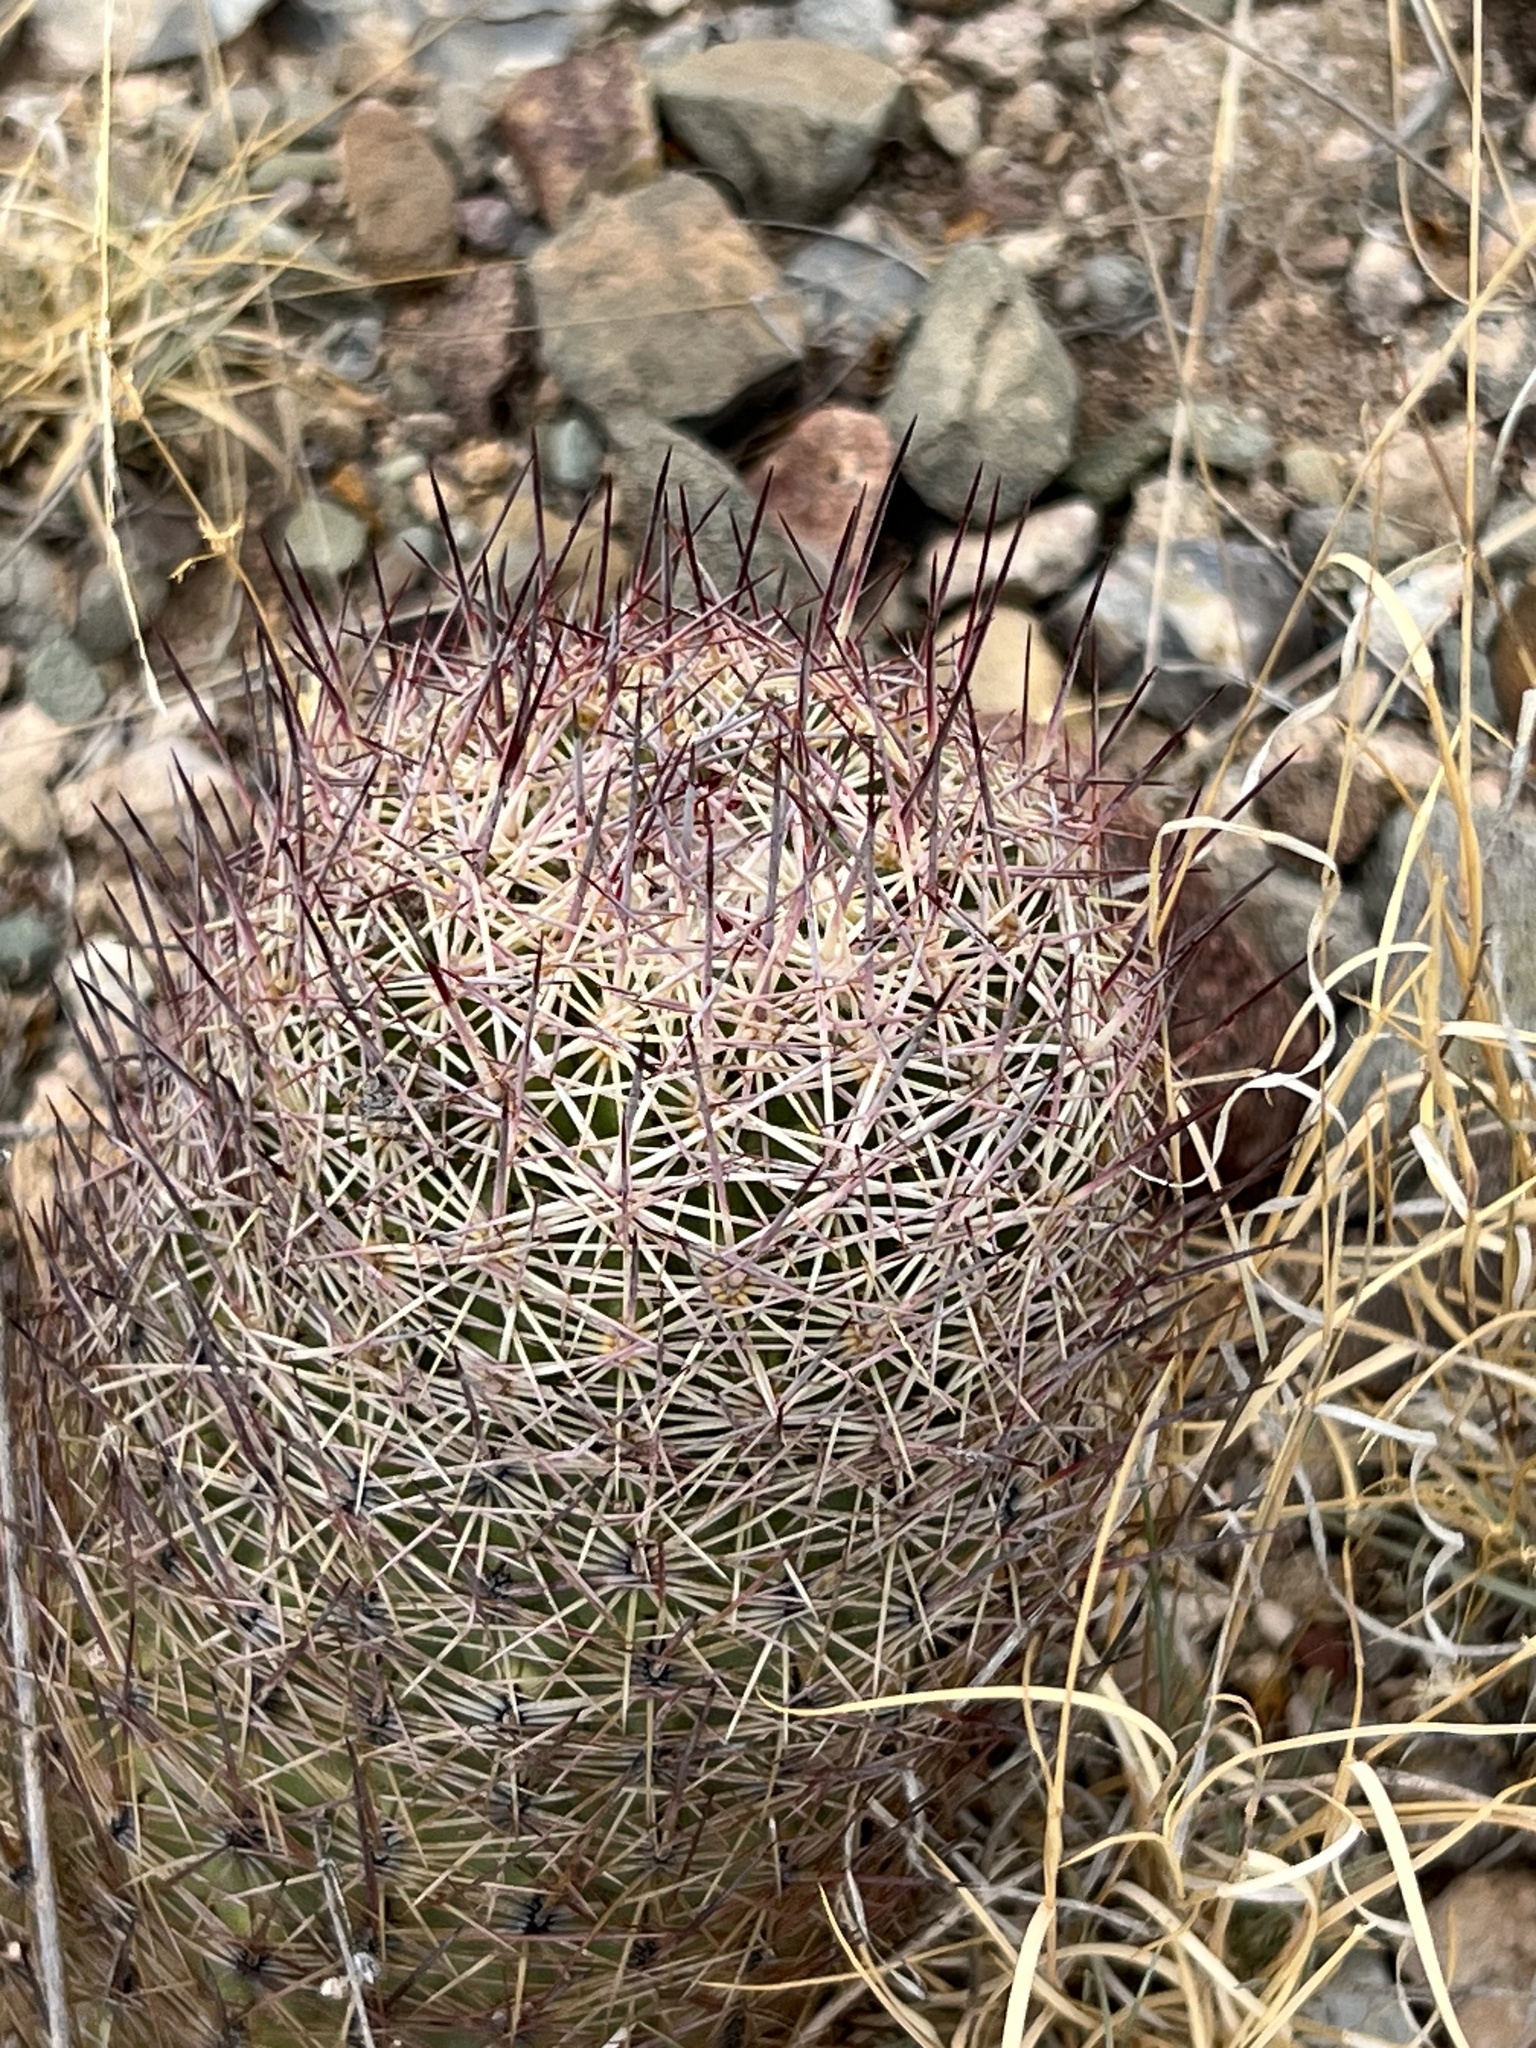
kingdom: Plantae
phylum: Tracheophyta
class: Magnoliopsida
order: Caryophyllales
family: Cactaceae
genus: Sclerocactus
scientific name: Sclerocactus johnsonii
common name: Eight-spine fishhook cactus
